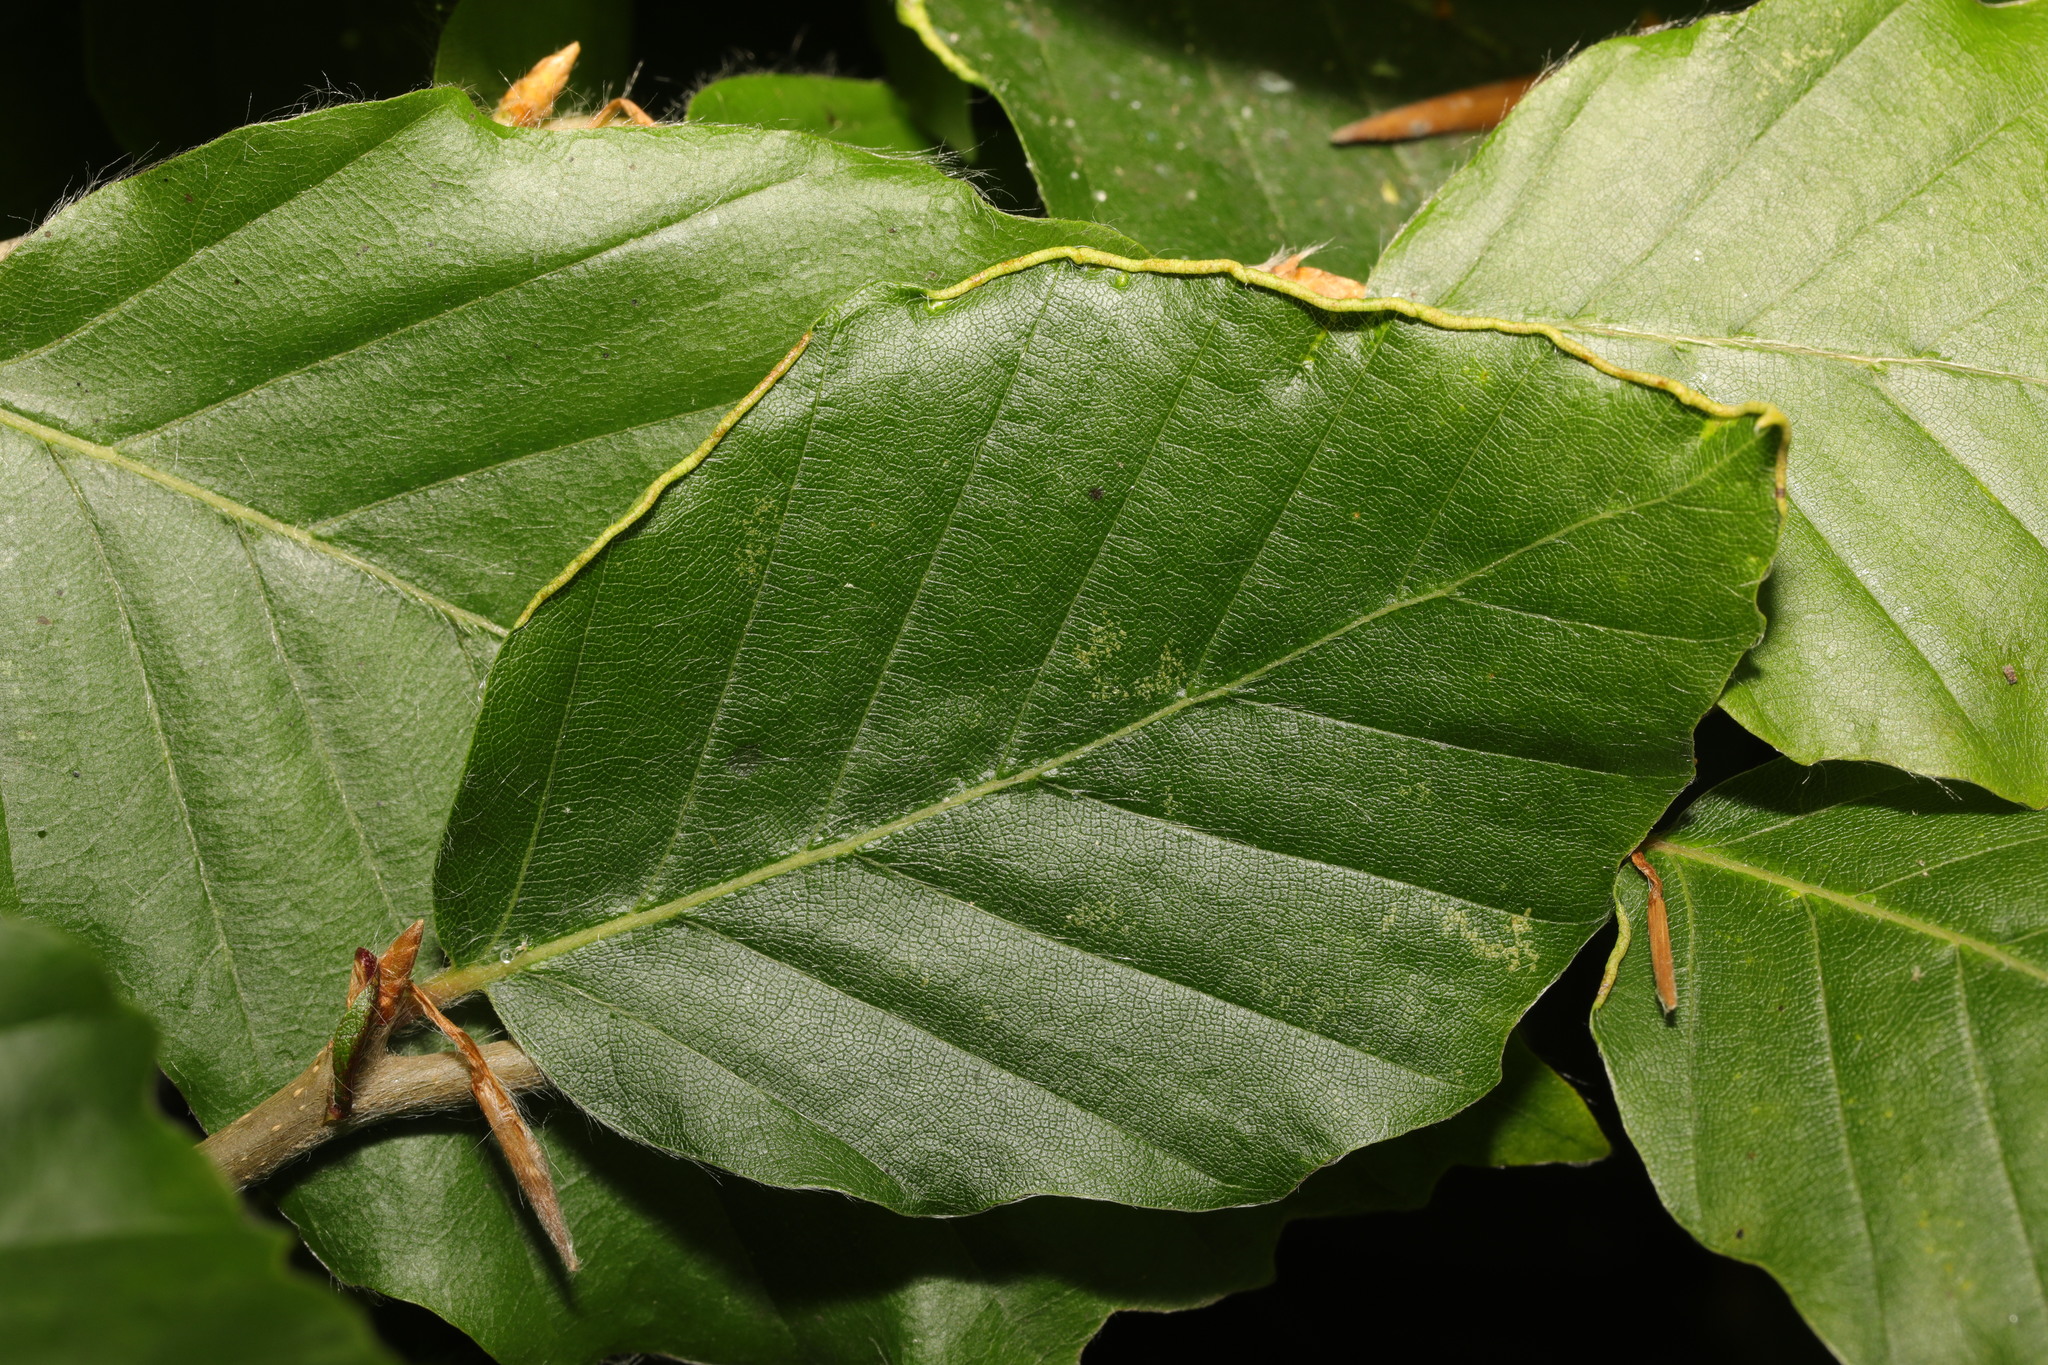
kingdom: Animalia
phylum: Arthropoda
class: Arachnida
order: Trombidiformes
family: Eriophyidae
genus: Acalitus
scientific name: Acalitus stenaspis
